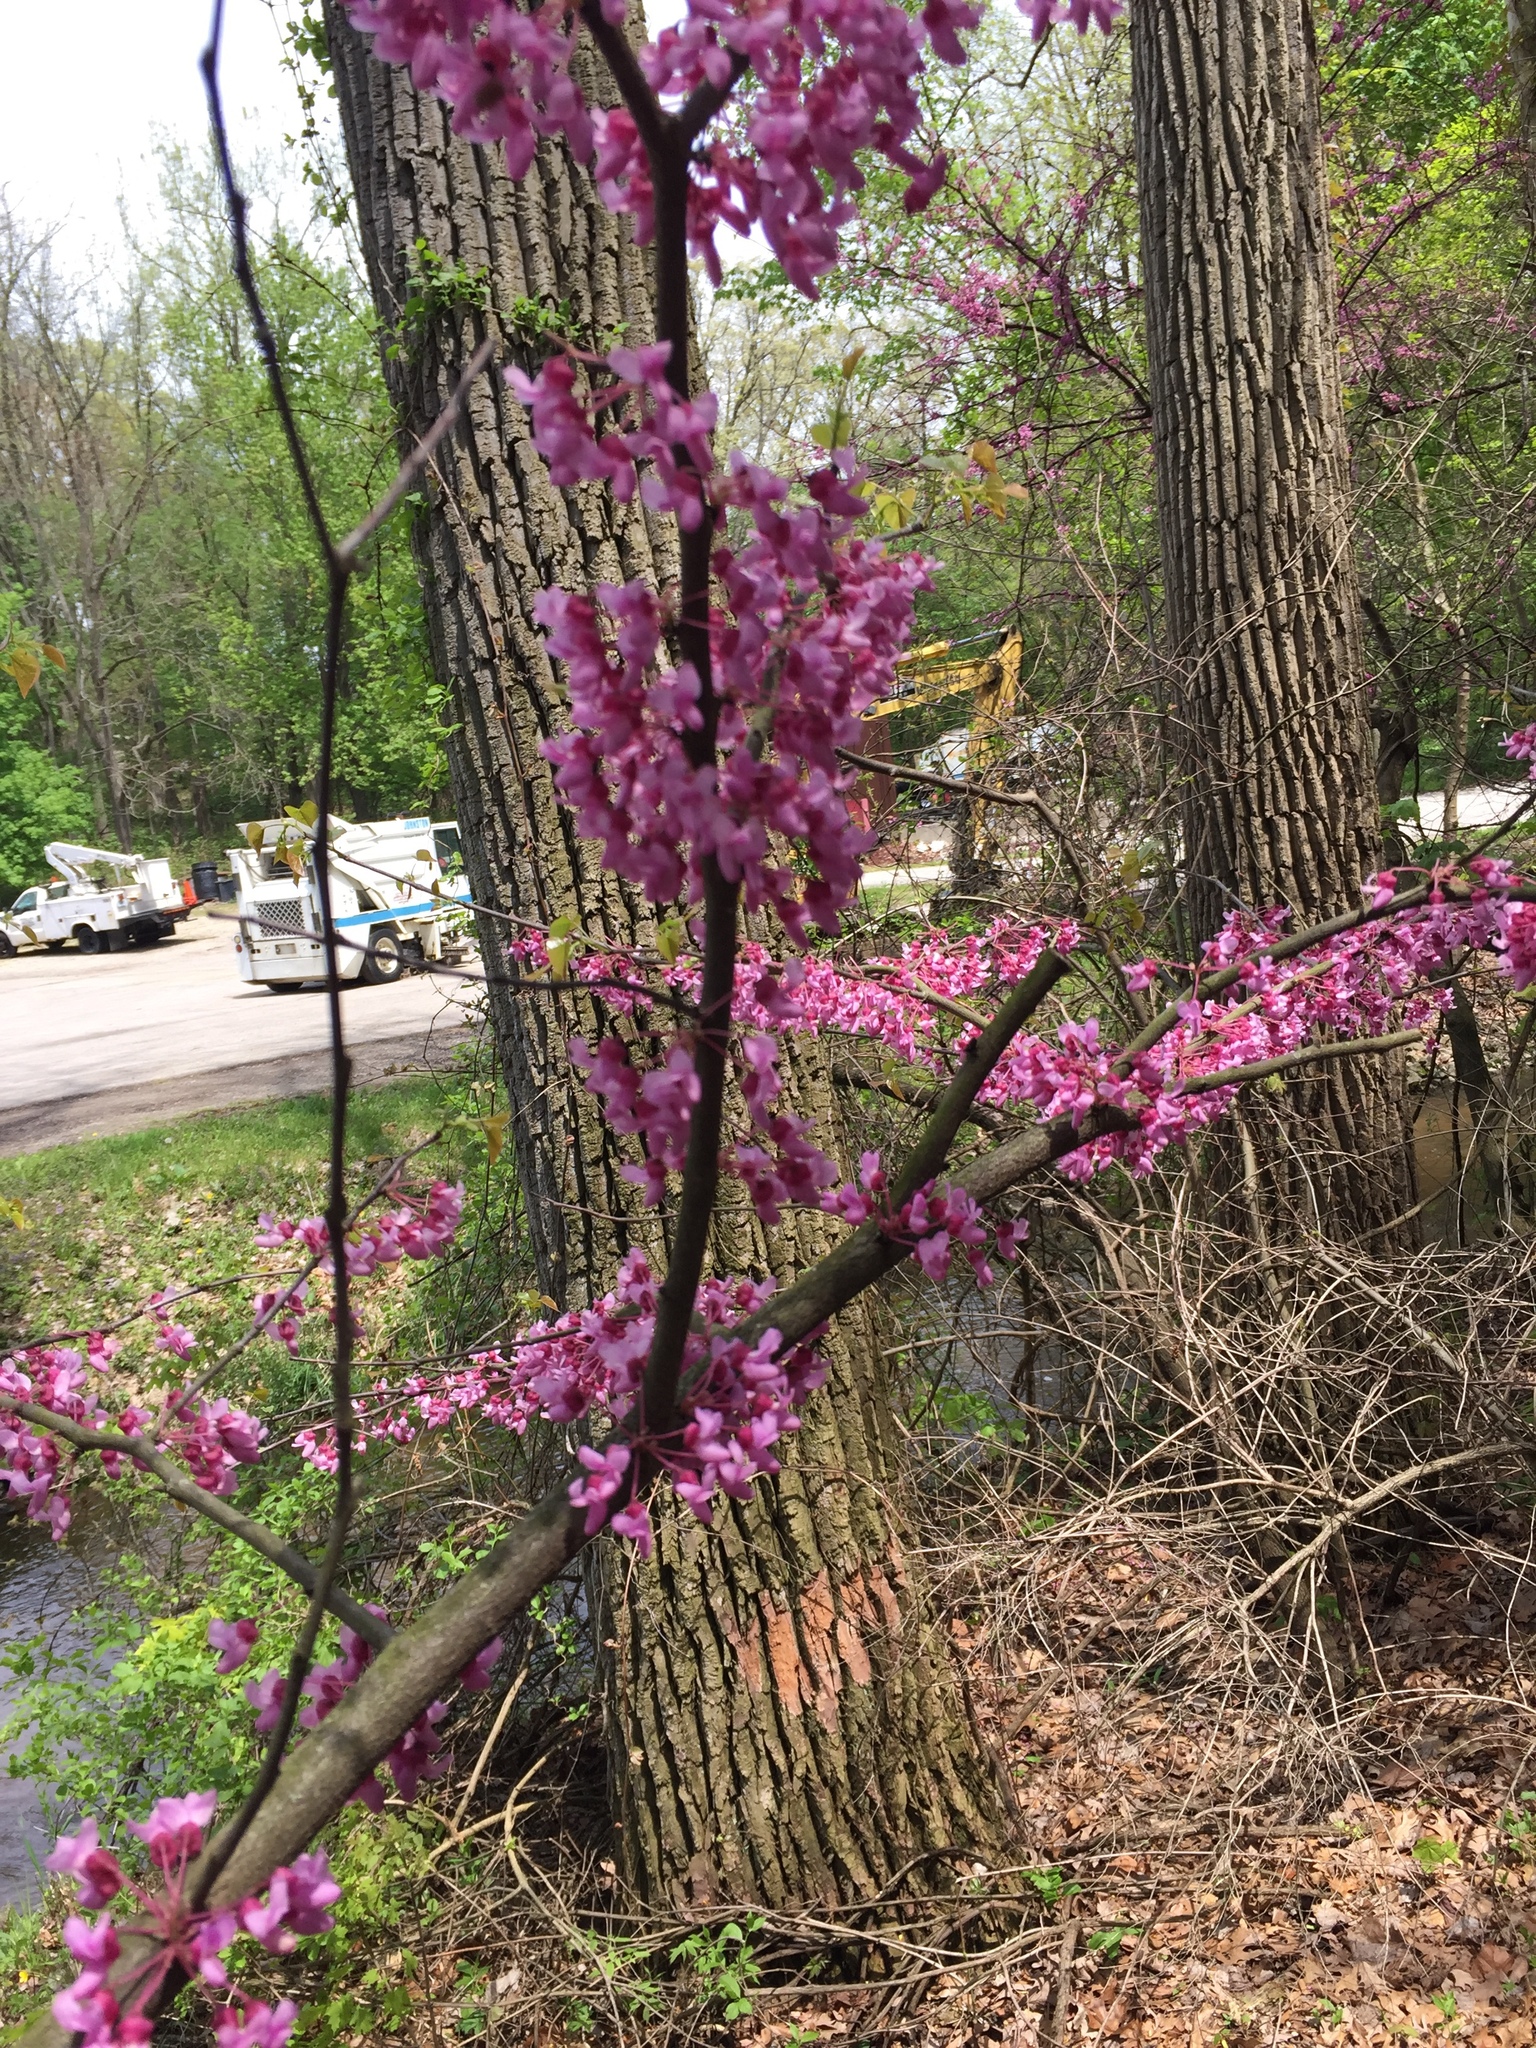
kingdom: Plantae
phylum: Tracheophyta
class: Magnoliopsida
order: Fabales
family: Fabaceae
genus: Cercis
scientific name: Cercis canadensis
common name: Eastern redbud
